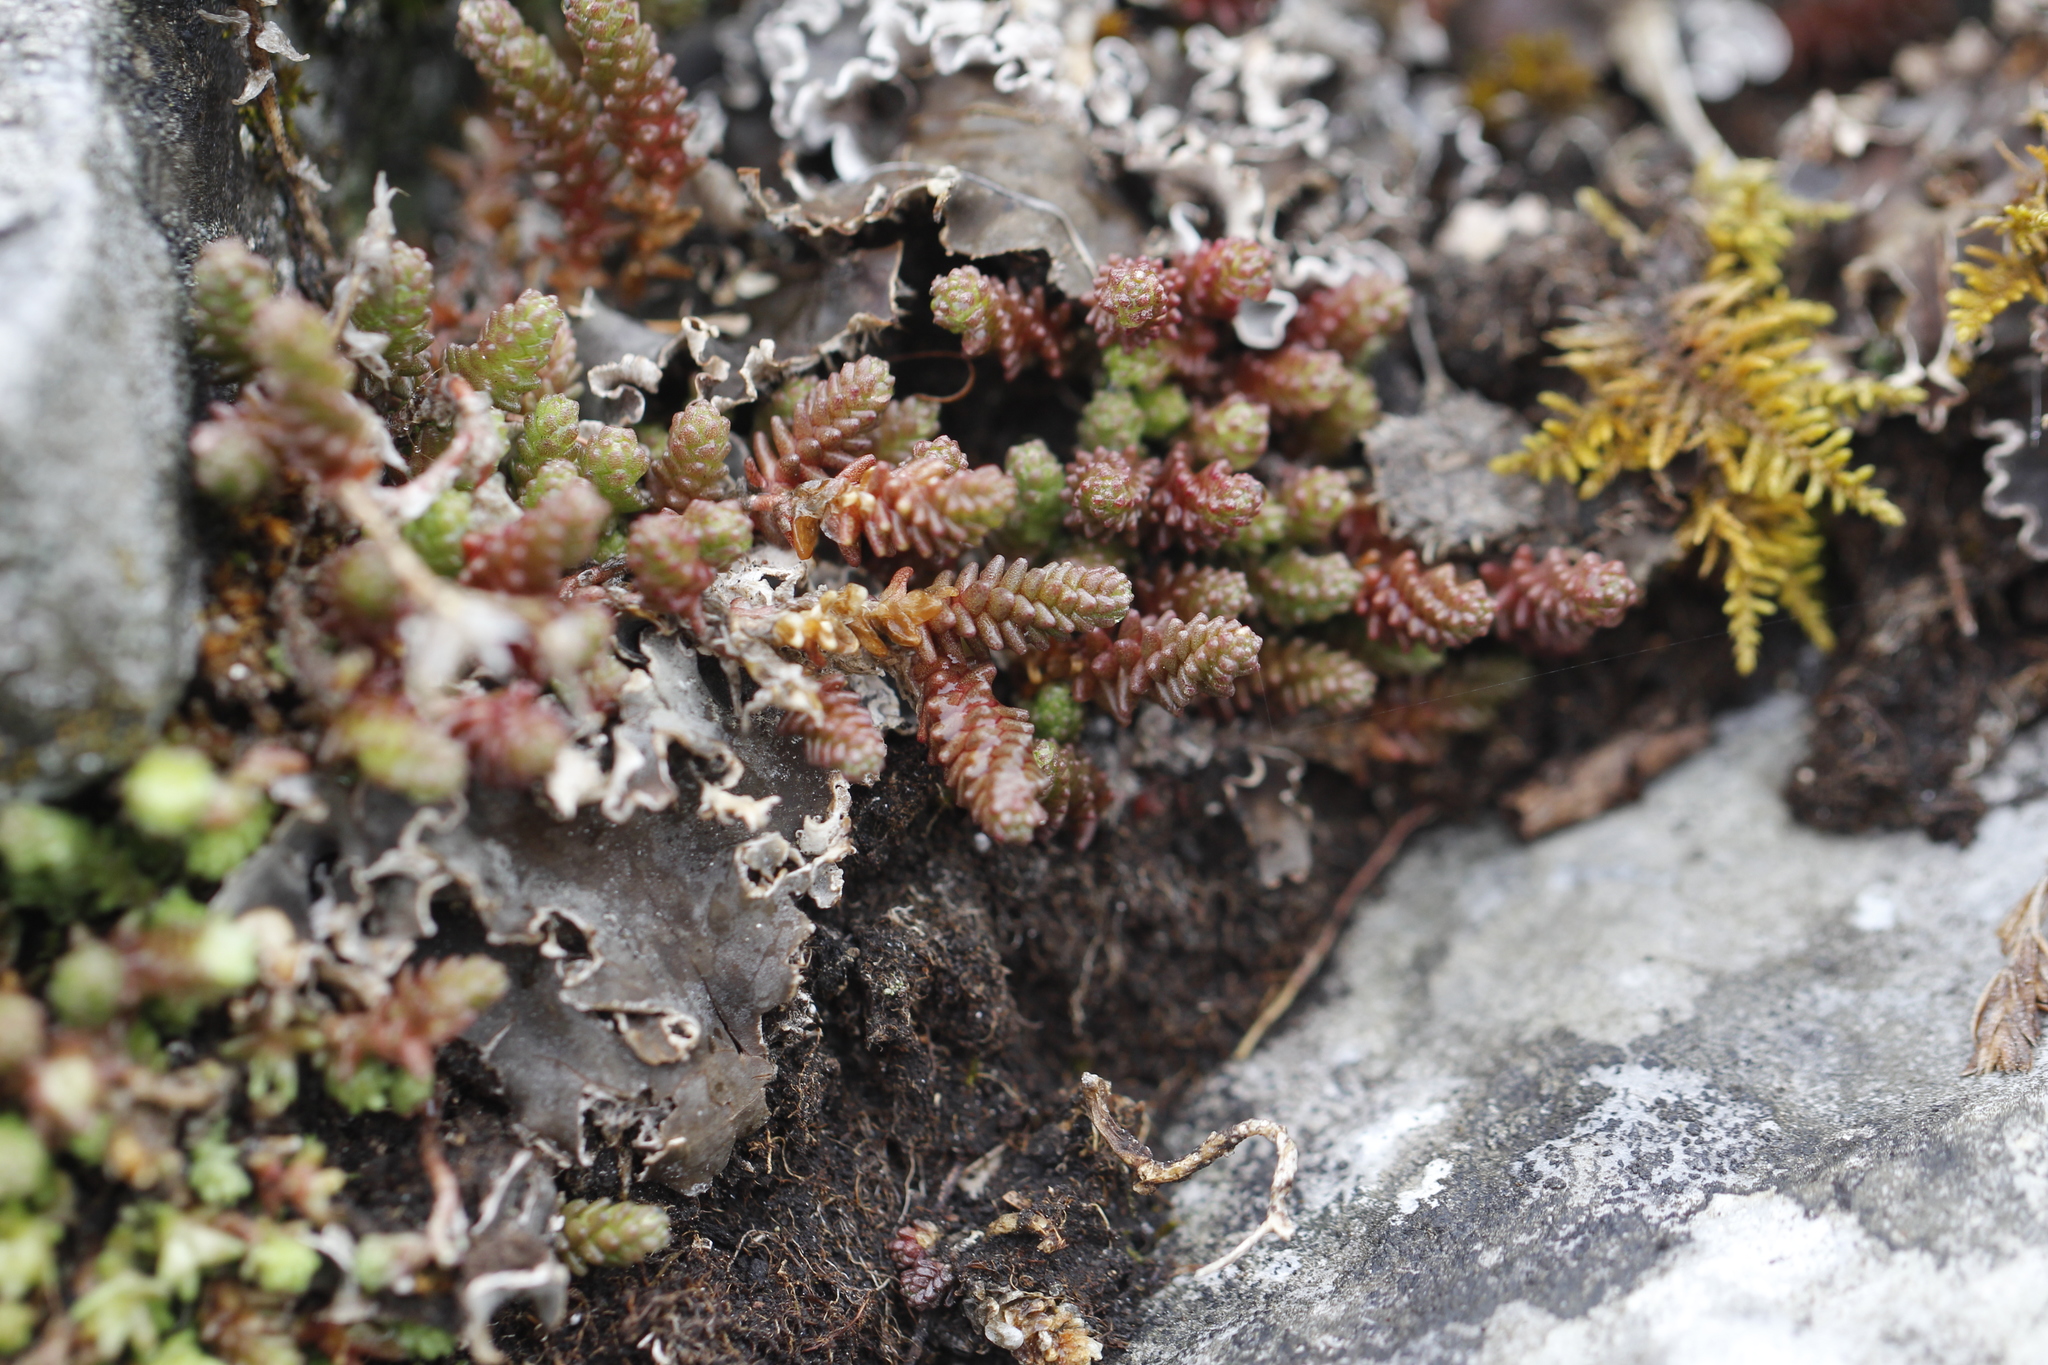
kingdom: Plantae
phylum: Tracheophyta
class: Magnoliopsida
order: Saxifragales
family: Crassulaceae
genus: Sedum
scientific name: Sedum acre
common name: Biting stonecrop
